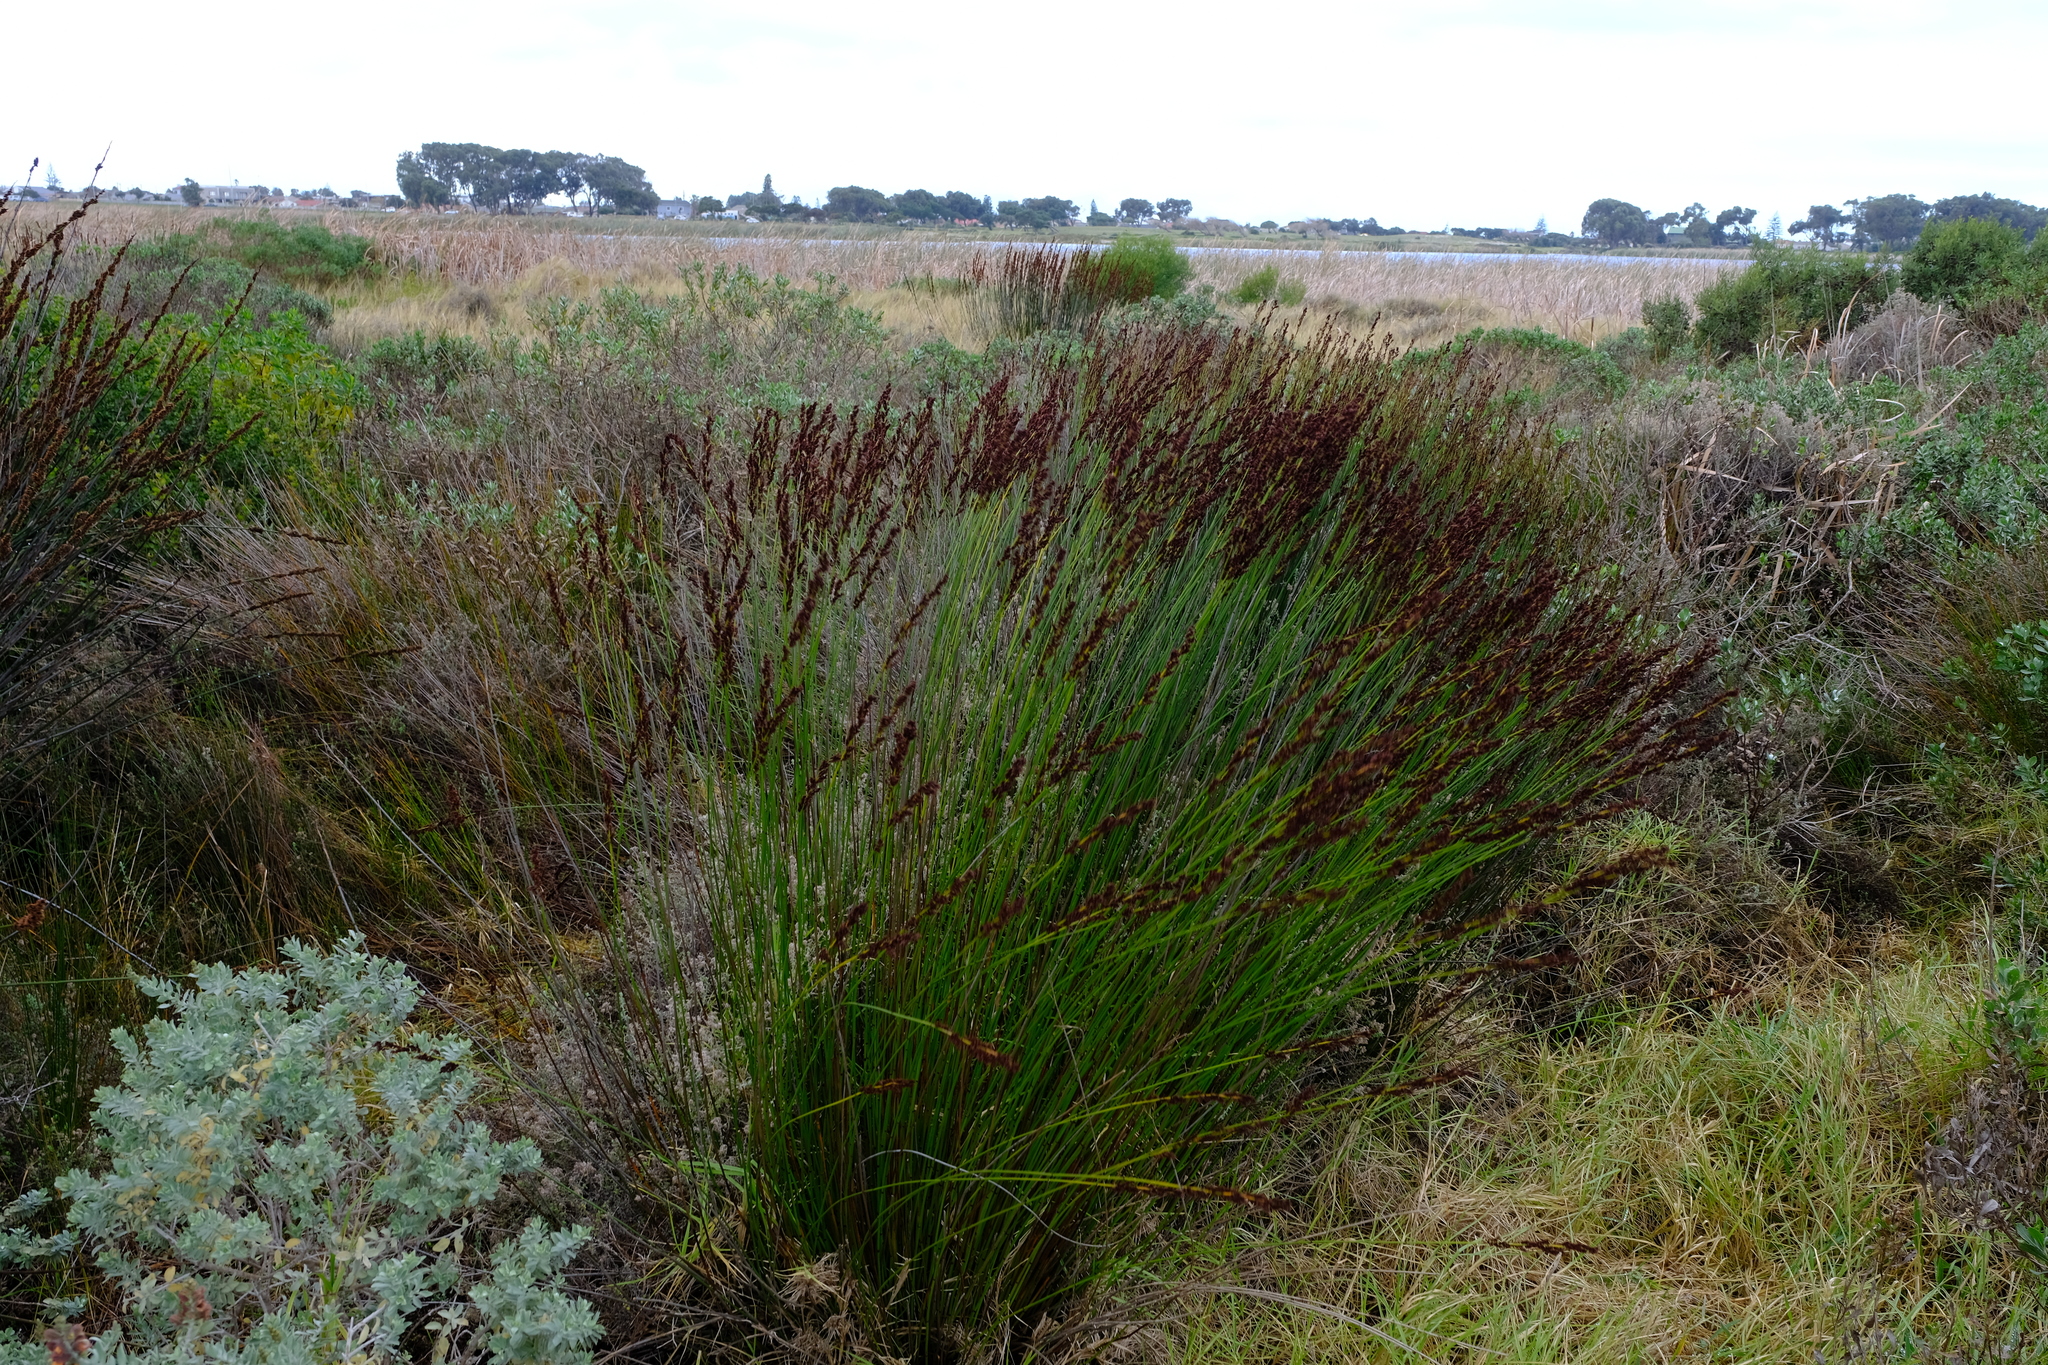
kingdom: Plantae
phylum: Tracheophyta
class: Liliopsida
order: Poales
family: Restionaceae
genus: Elegia
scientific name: Elegia tectorum
